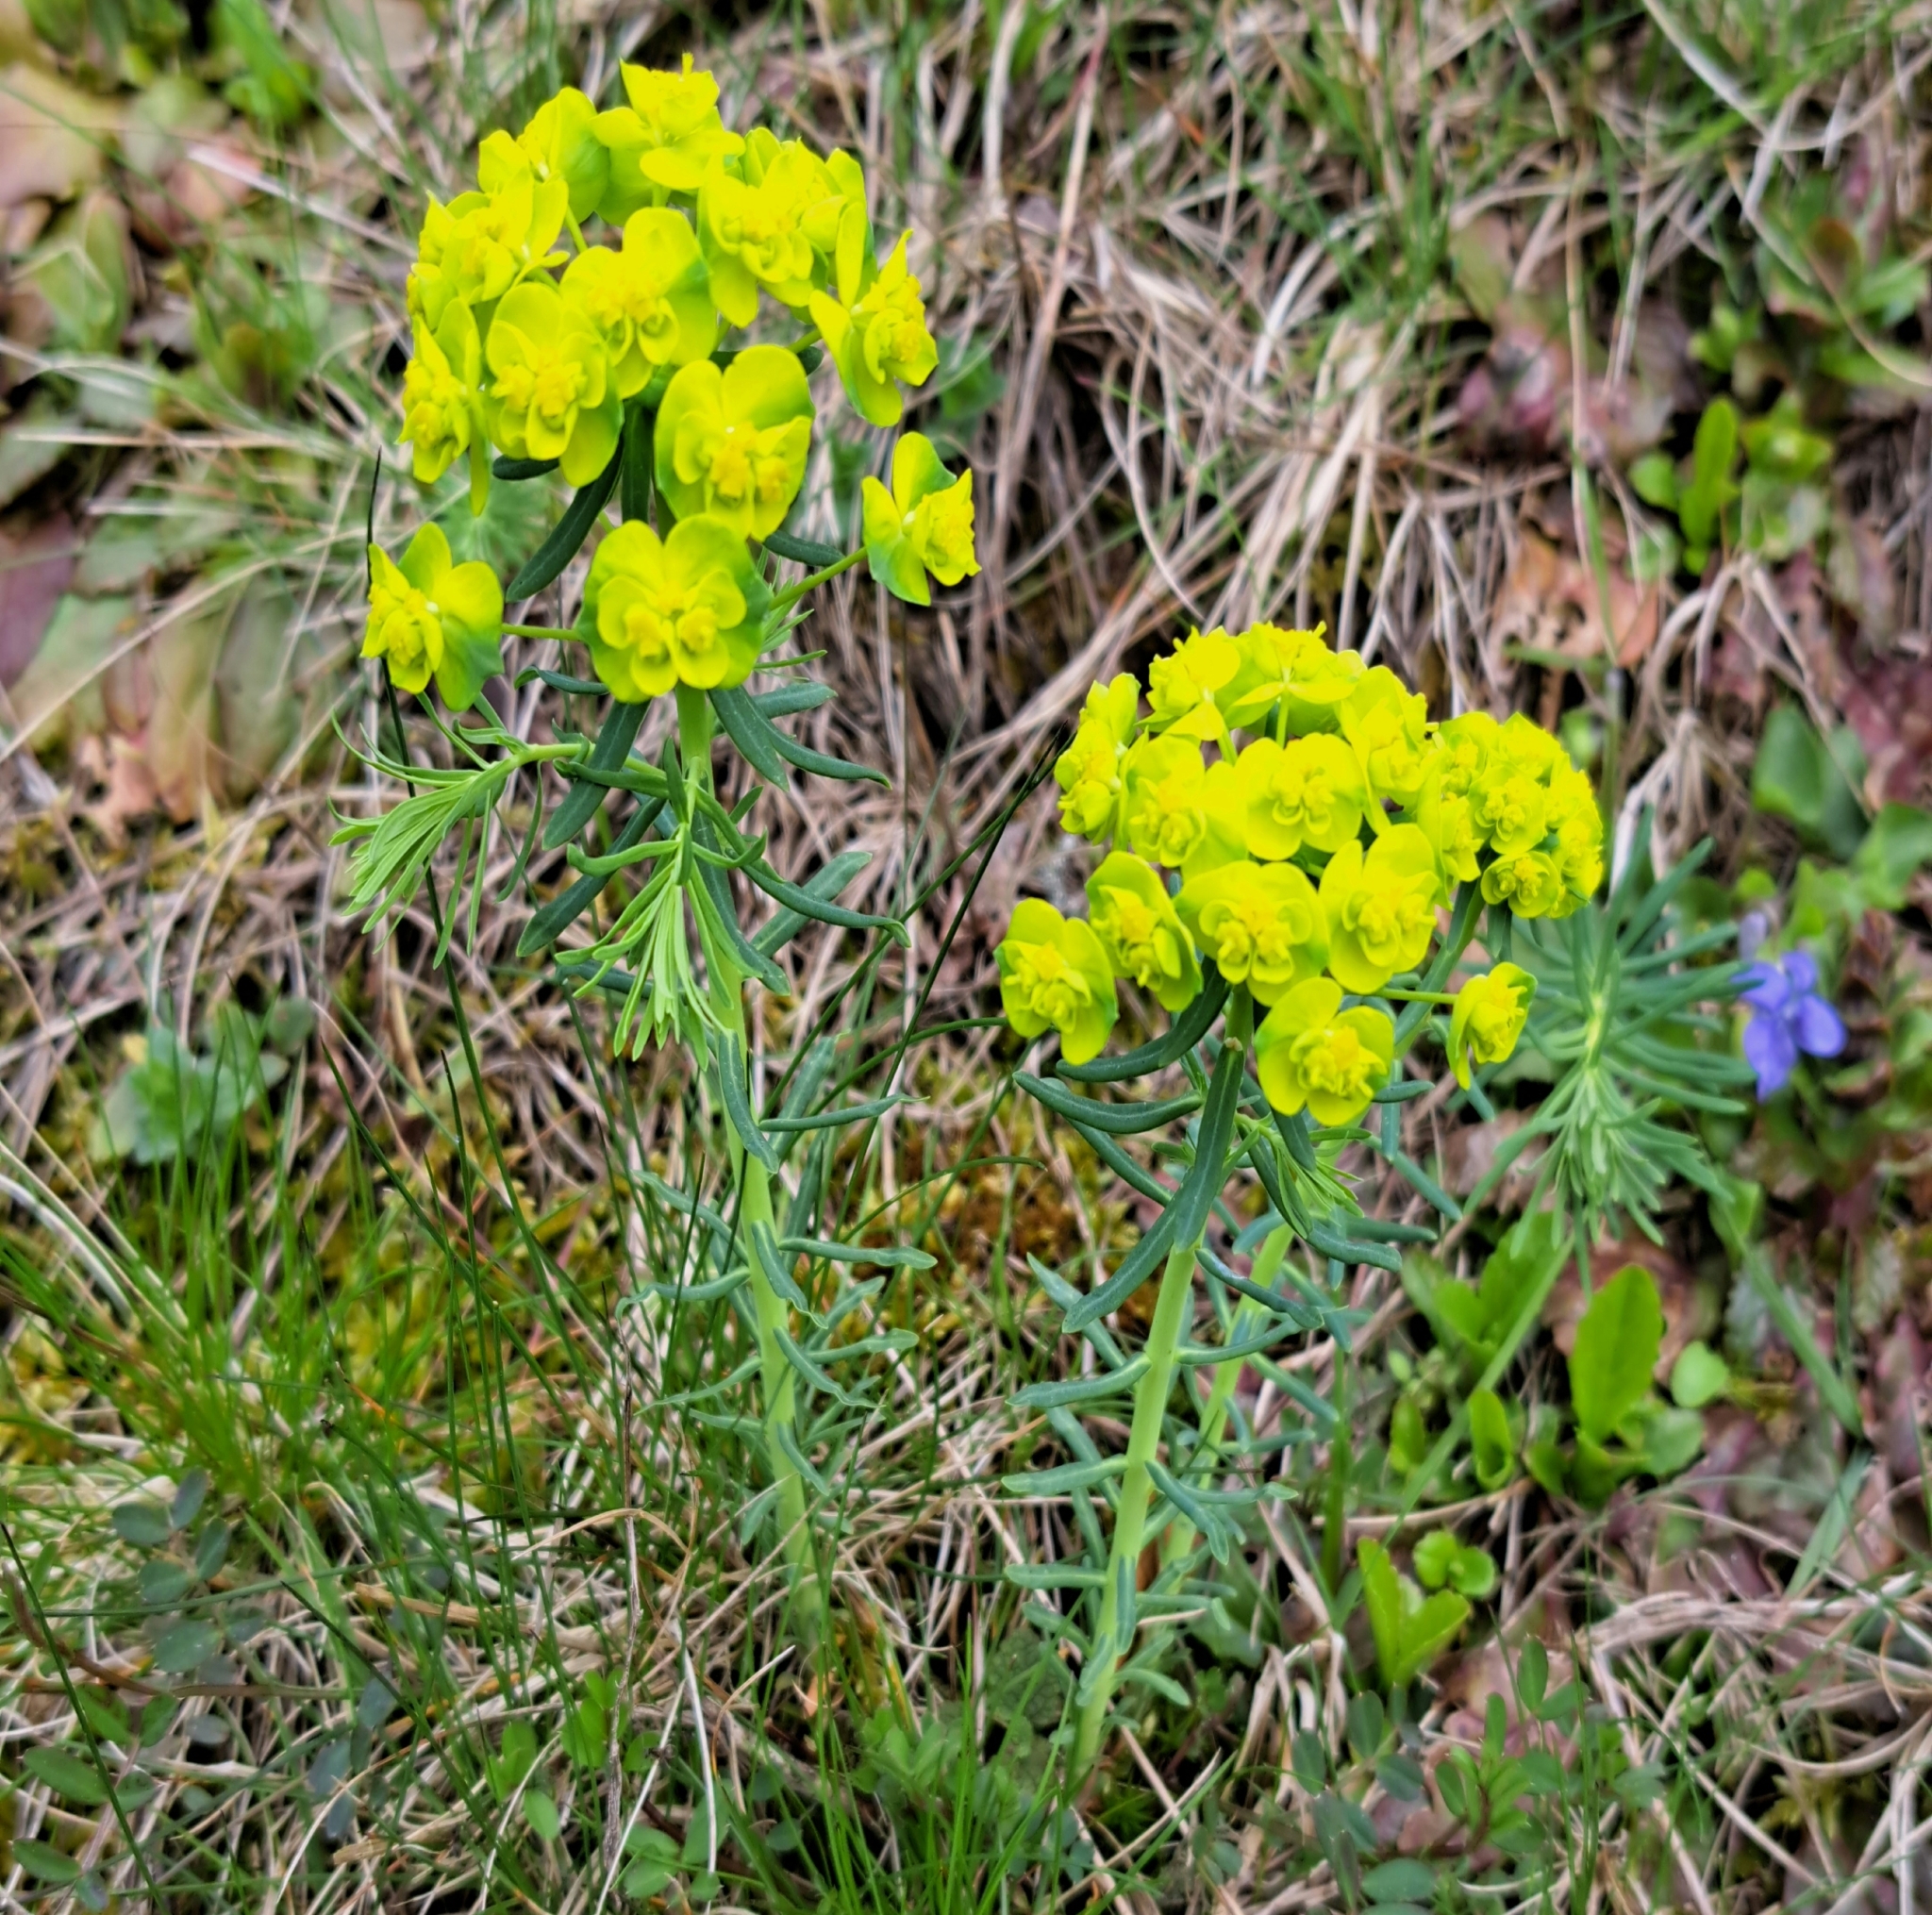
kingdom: Plantae
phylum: Tracheophyta
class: Magnoliopsida
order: Malpighiales
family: Euphorbiaceae
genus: Euphorbia
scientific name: Euphorbia cyparissias
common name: Cypress spurge
